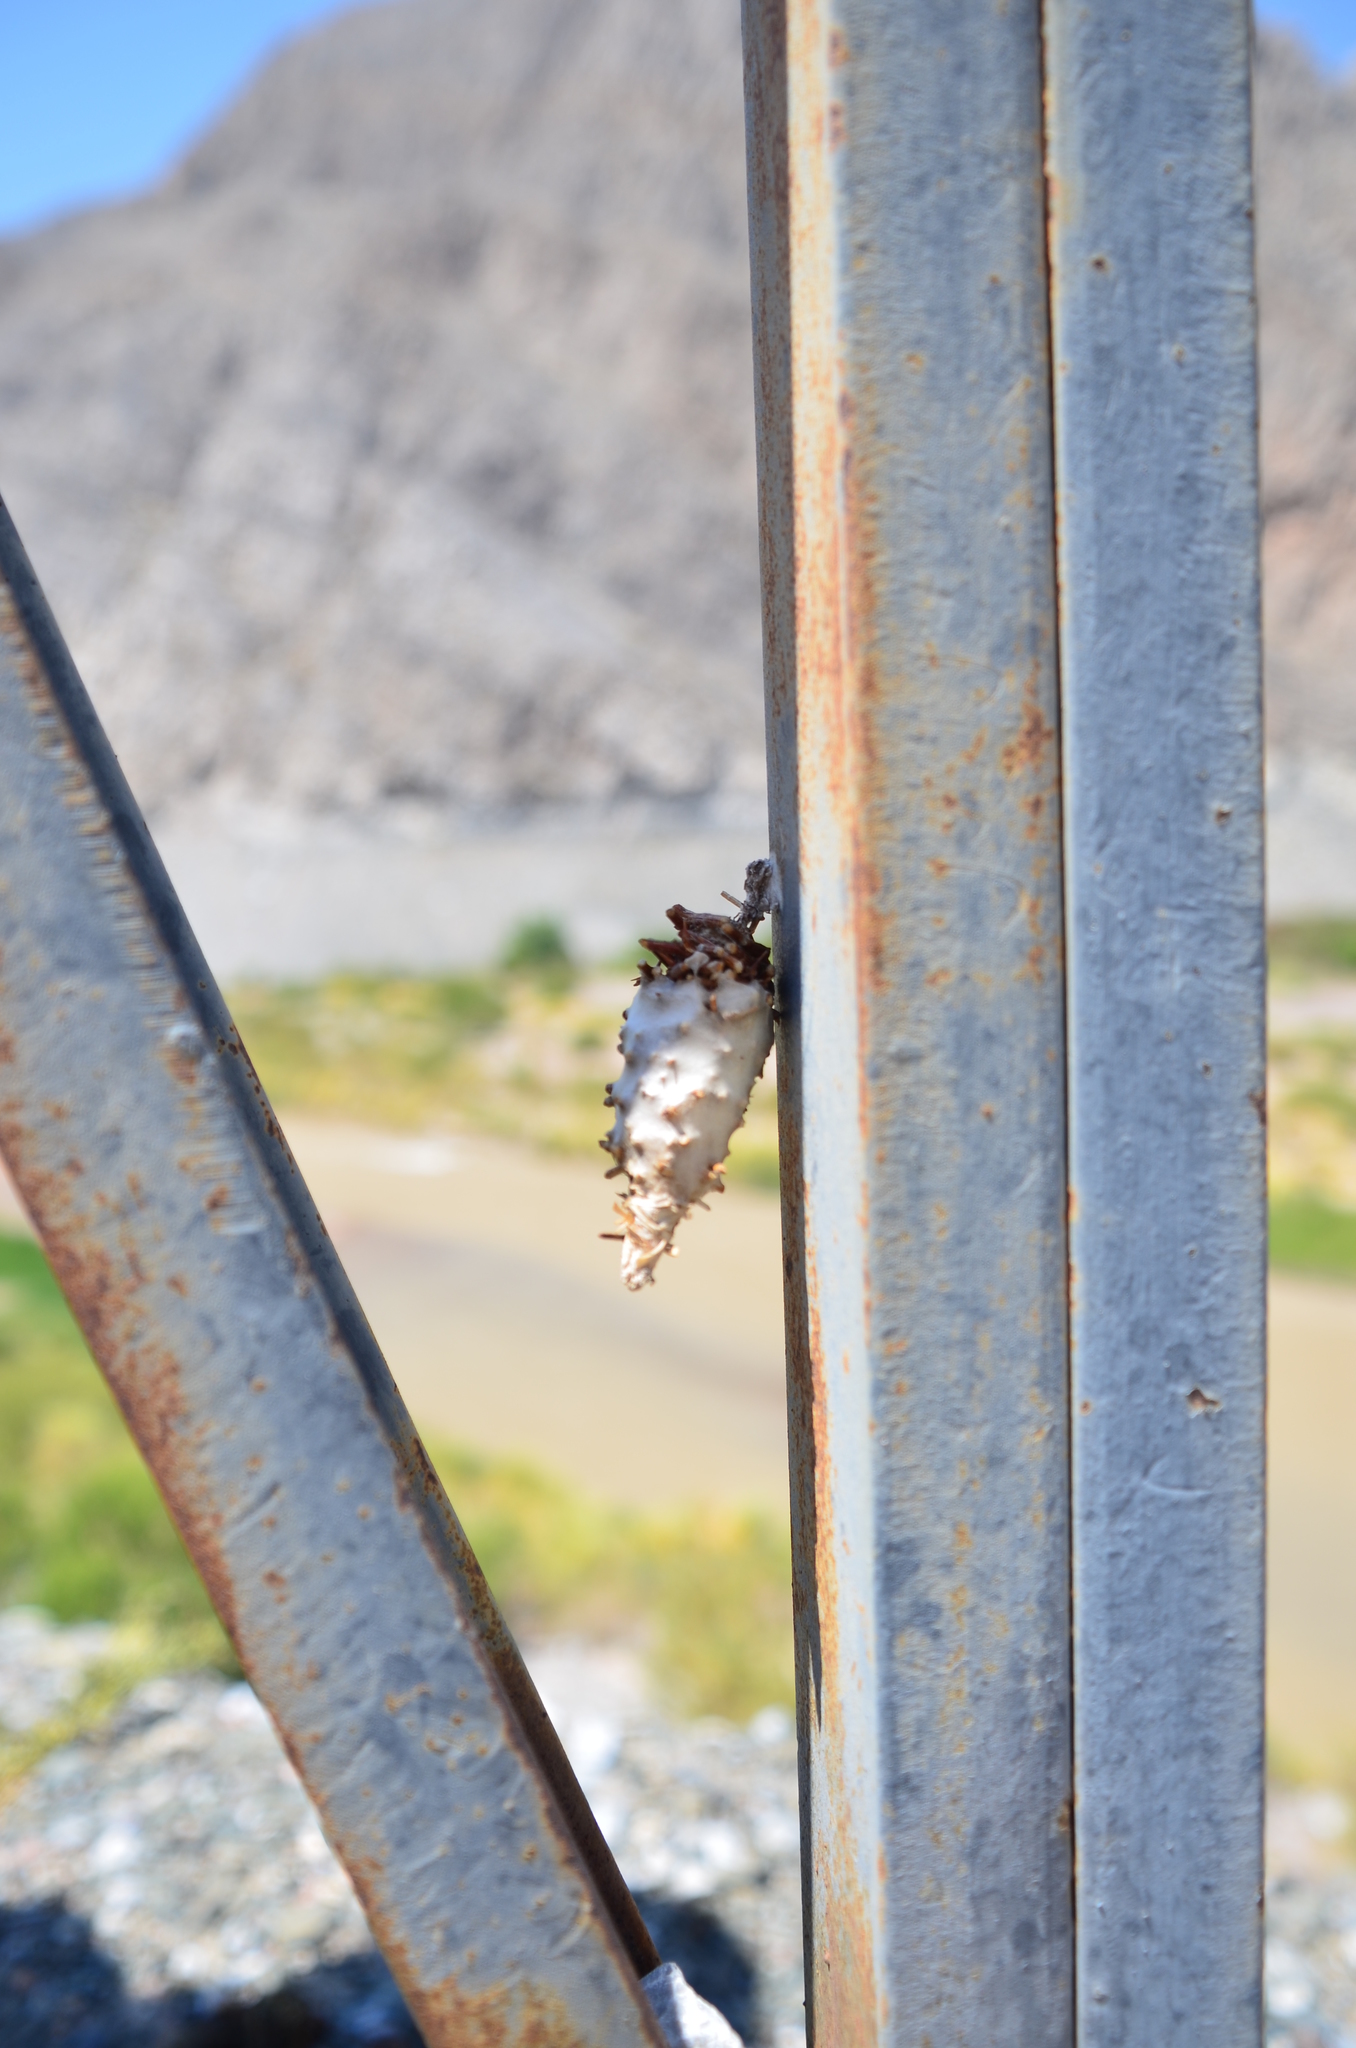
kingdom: Animalia
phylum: Arthropoda
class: Insecta
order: Lepidoptera
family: Psychidae
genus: Oiketicus
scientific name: Oiketicus
